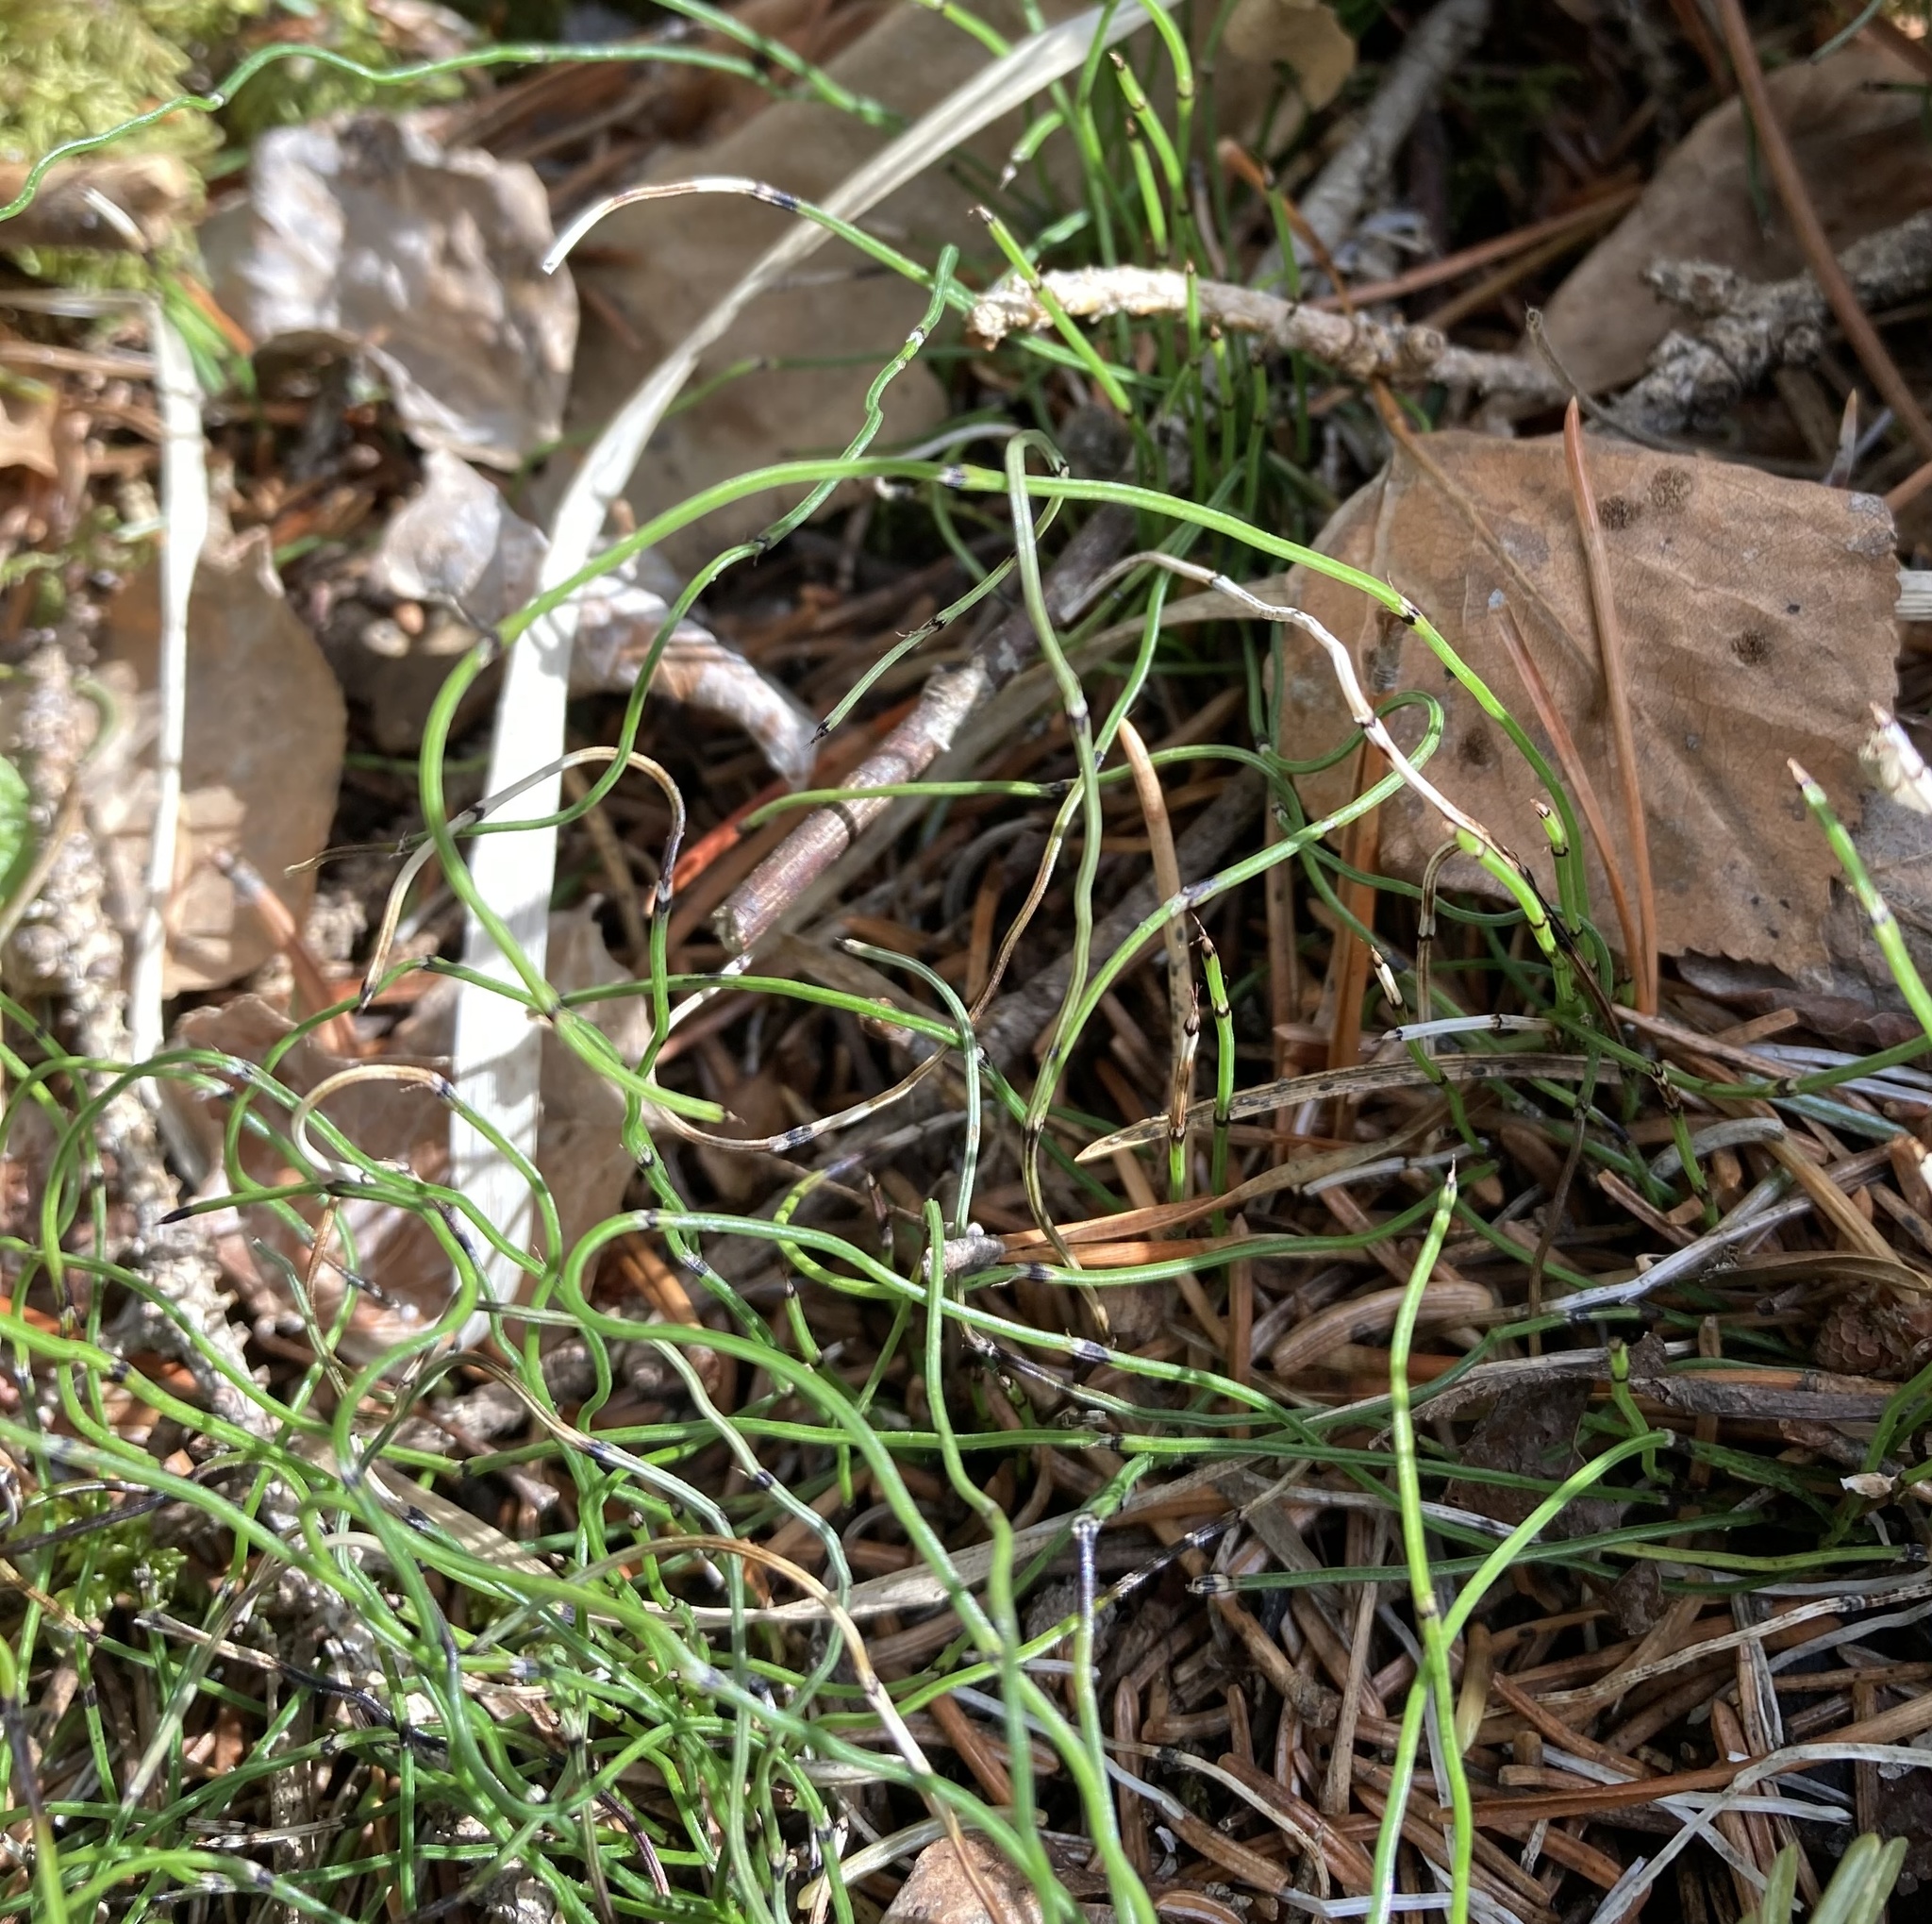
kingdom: Plantae
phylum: Tracheophyta
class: Polypodiopsida
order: Equisetales
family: Equisetaceae
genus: Equisetum
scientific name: Equisetum scirpoides
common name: Delicate horsetail
